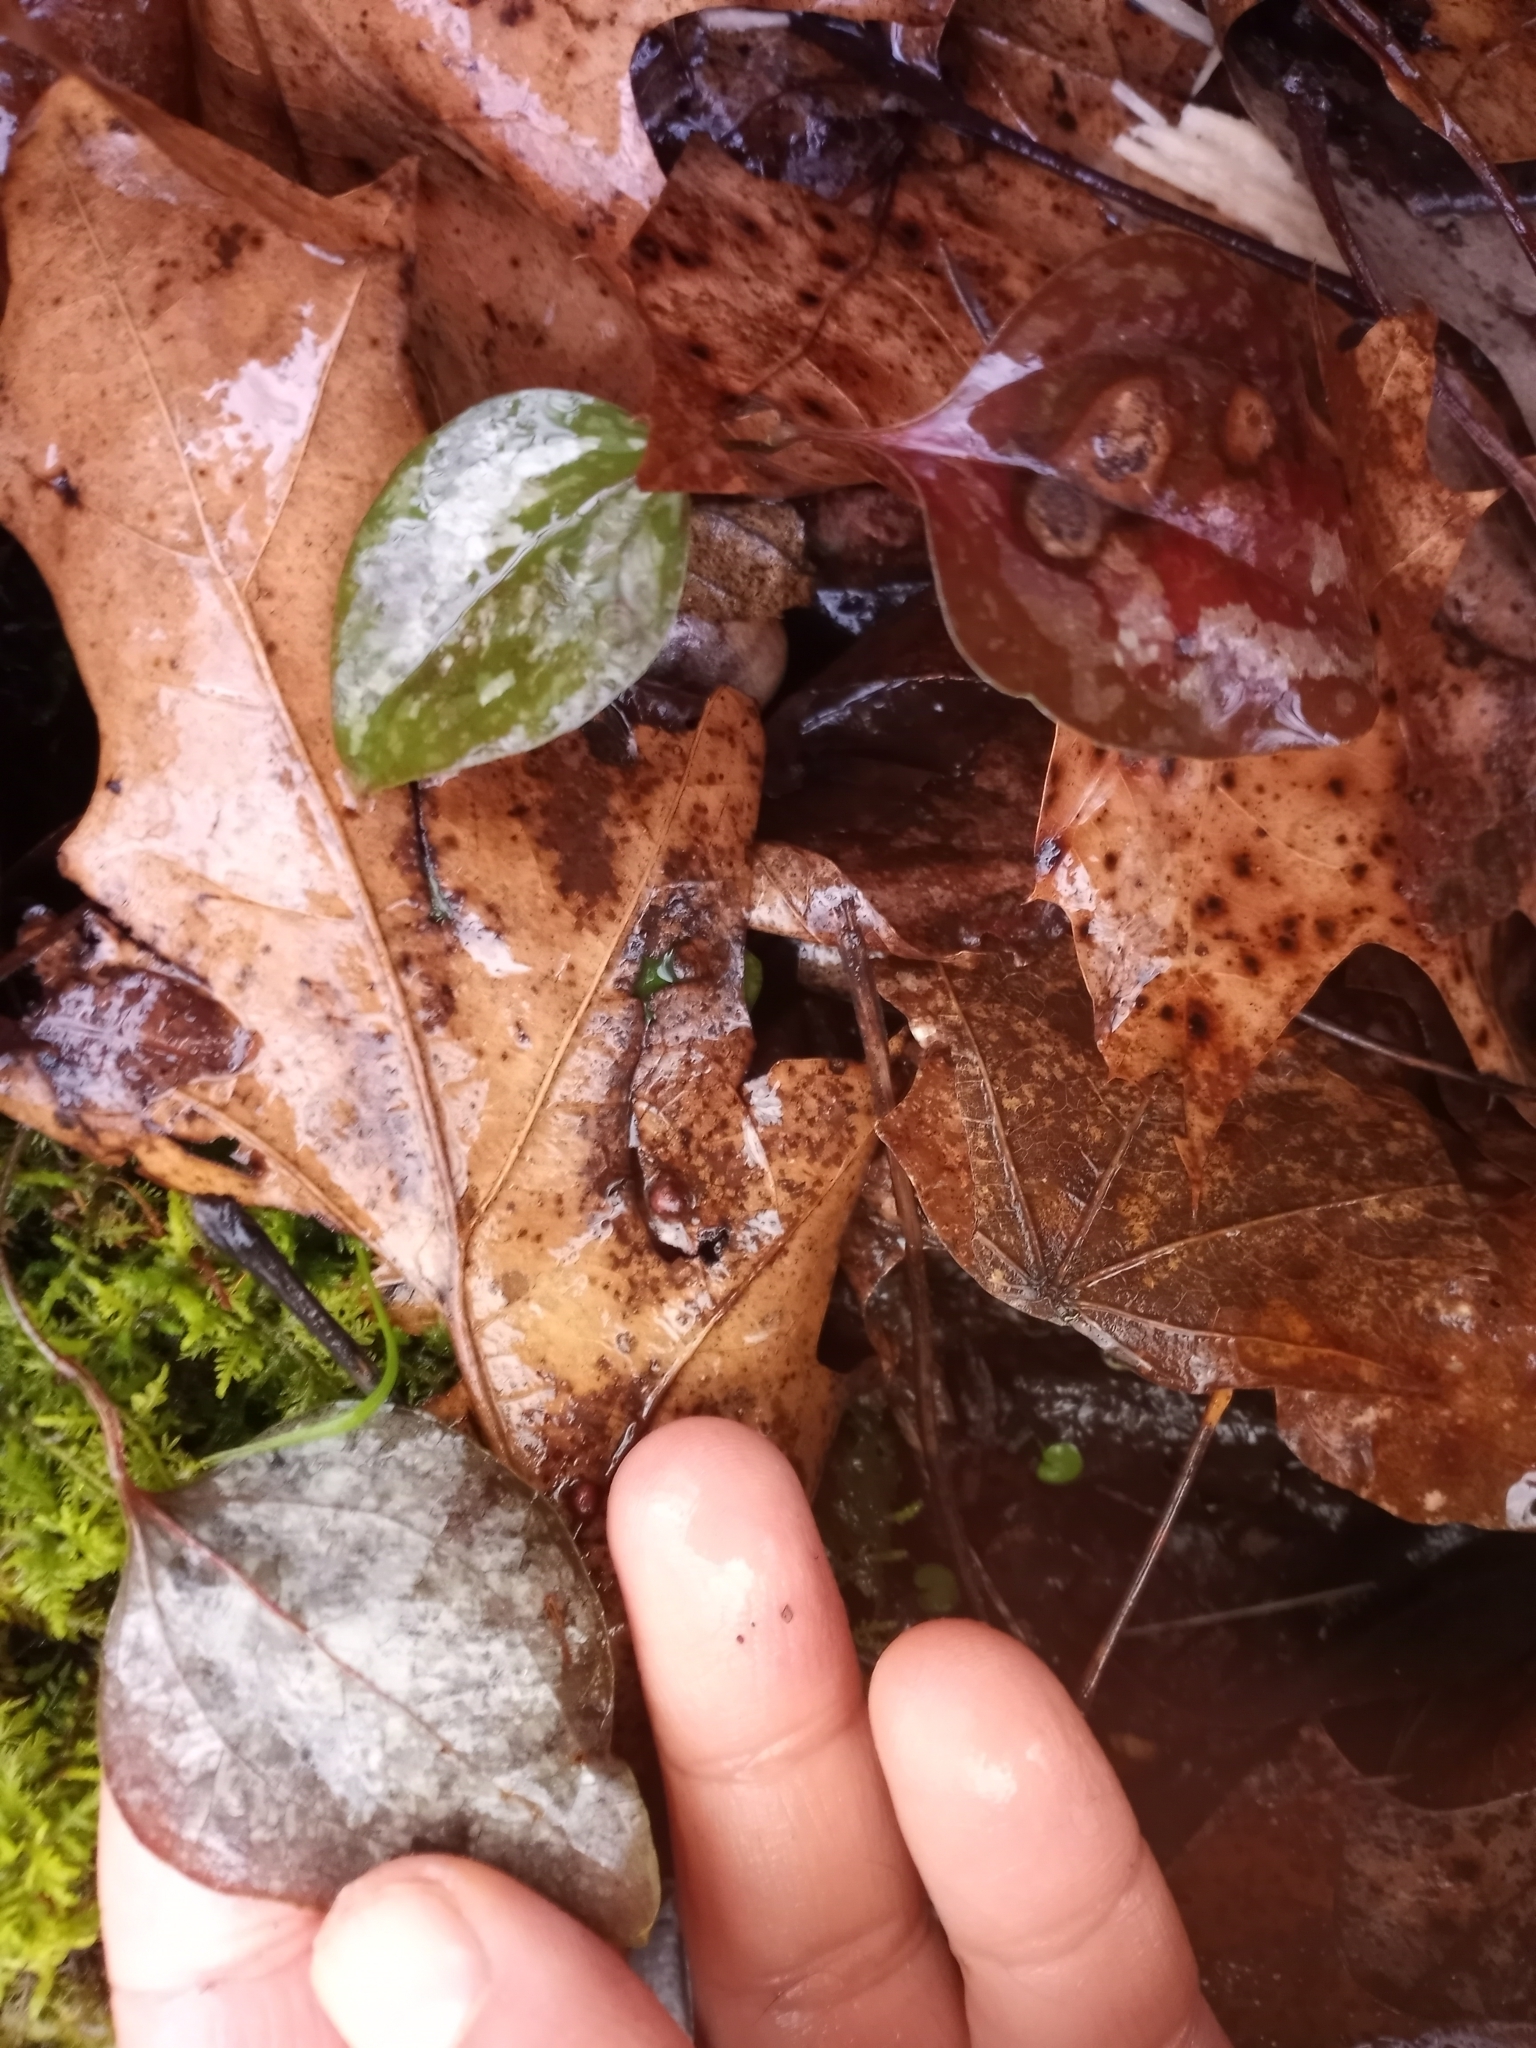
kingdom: Plantae
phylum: Tracheophyta
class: Liliopsida
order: Liliales
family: Smilacaceae
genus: Smilax
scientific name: Smilax glauca
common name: Cat greenbrier
